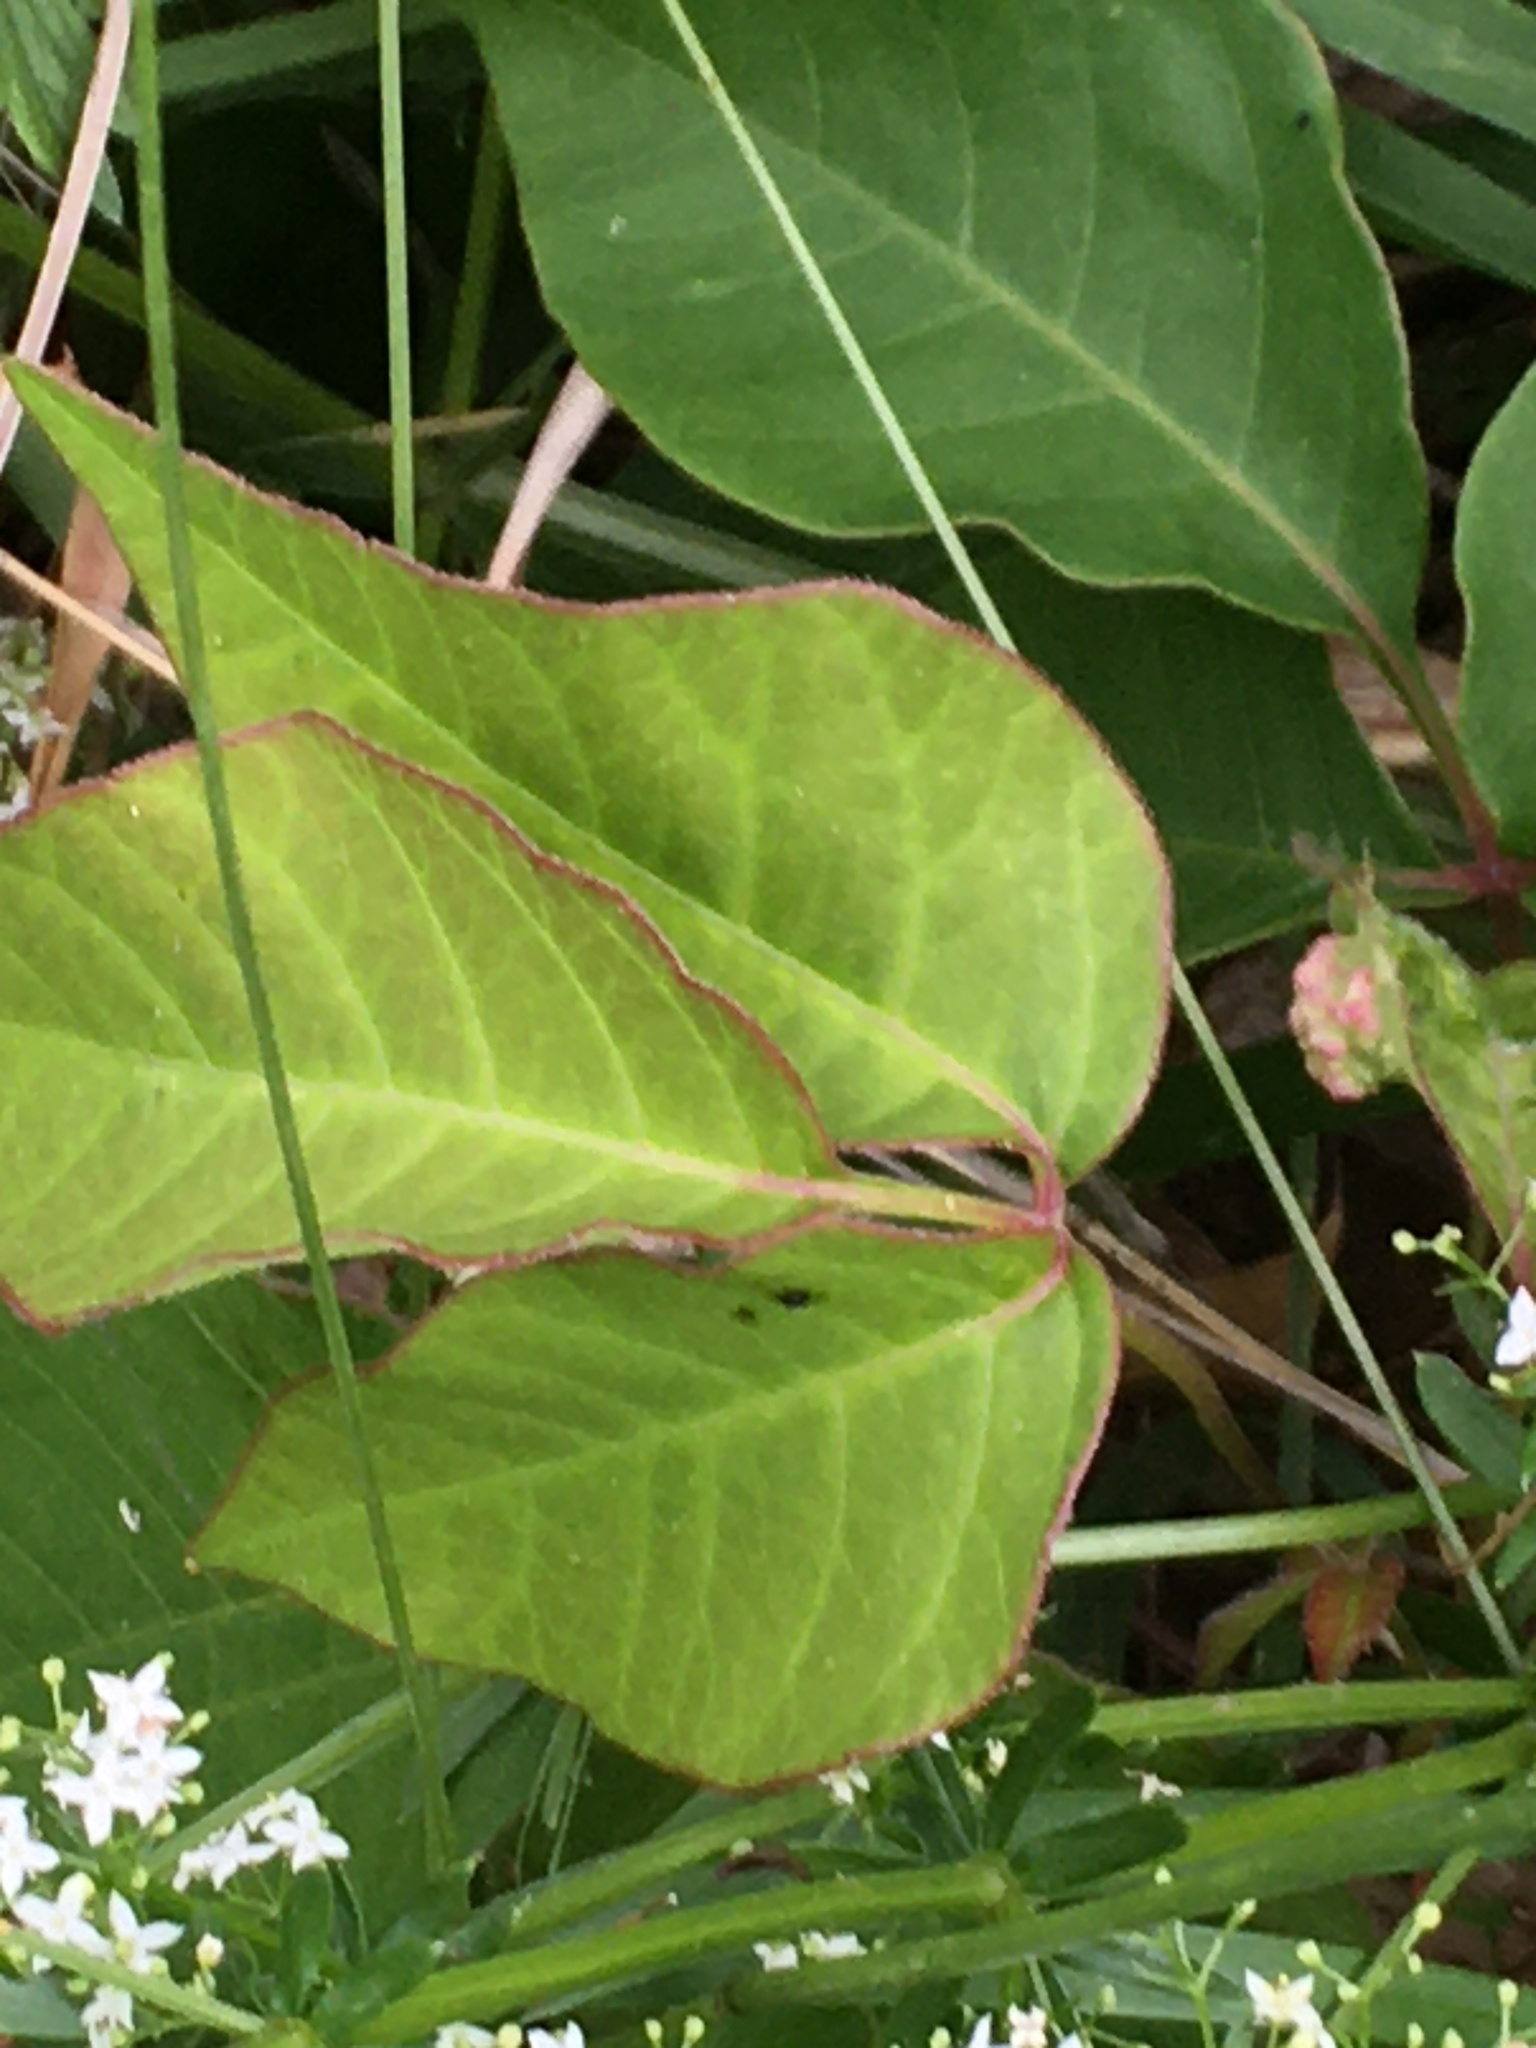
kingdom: Plantae
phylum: Tracheophyta
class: Magnoliopsida
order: Sapindales
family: Anacardiaceae
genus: Toxicodendron
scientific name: Toxicodendron radicans
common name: Poison ivy
